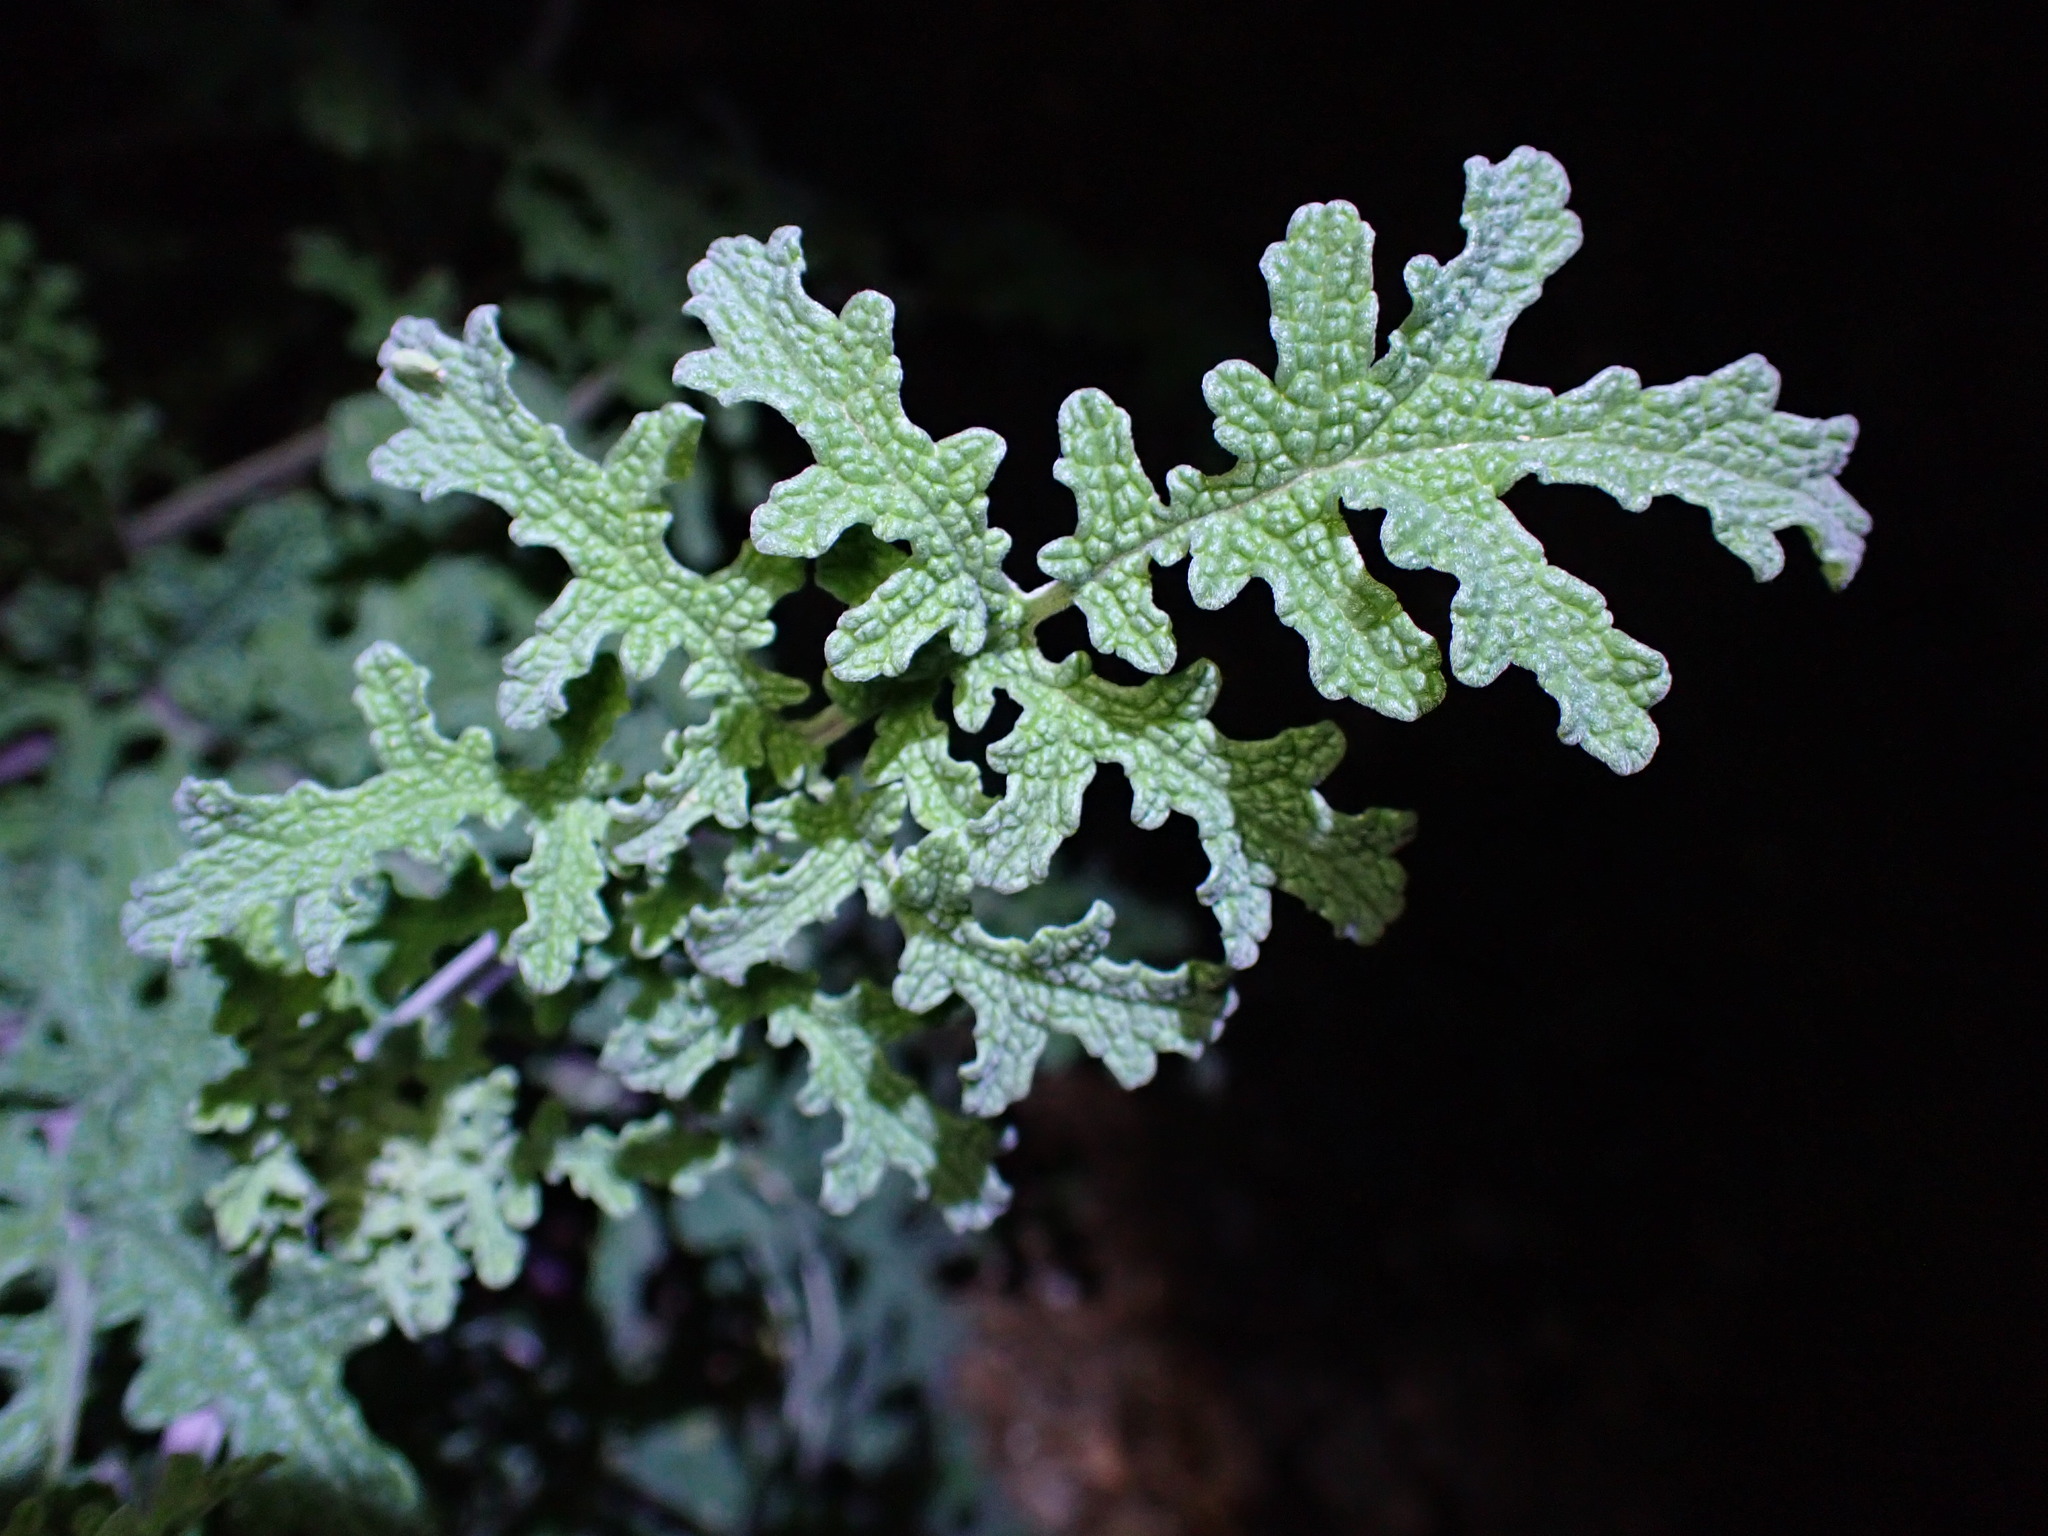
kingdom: Plantae
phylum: Tracheophyta
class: Magnoliopsida
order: Lamiales
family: Lamiaceae
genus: Salvia
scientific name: Salvia columbariae
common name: Chia
